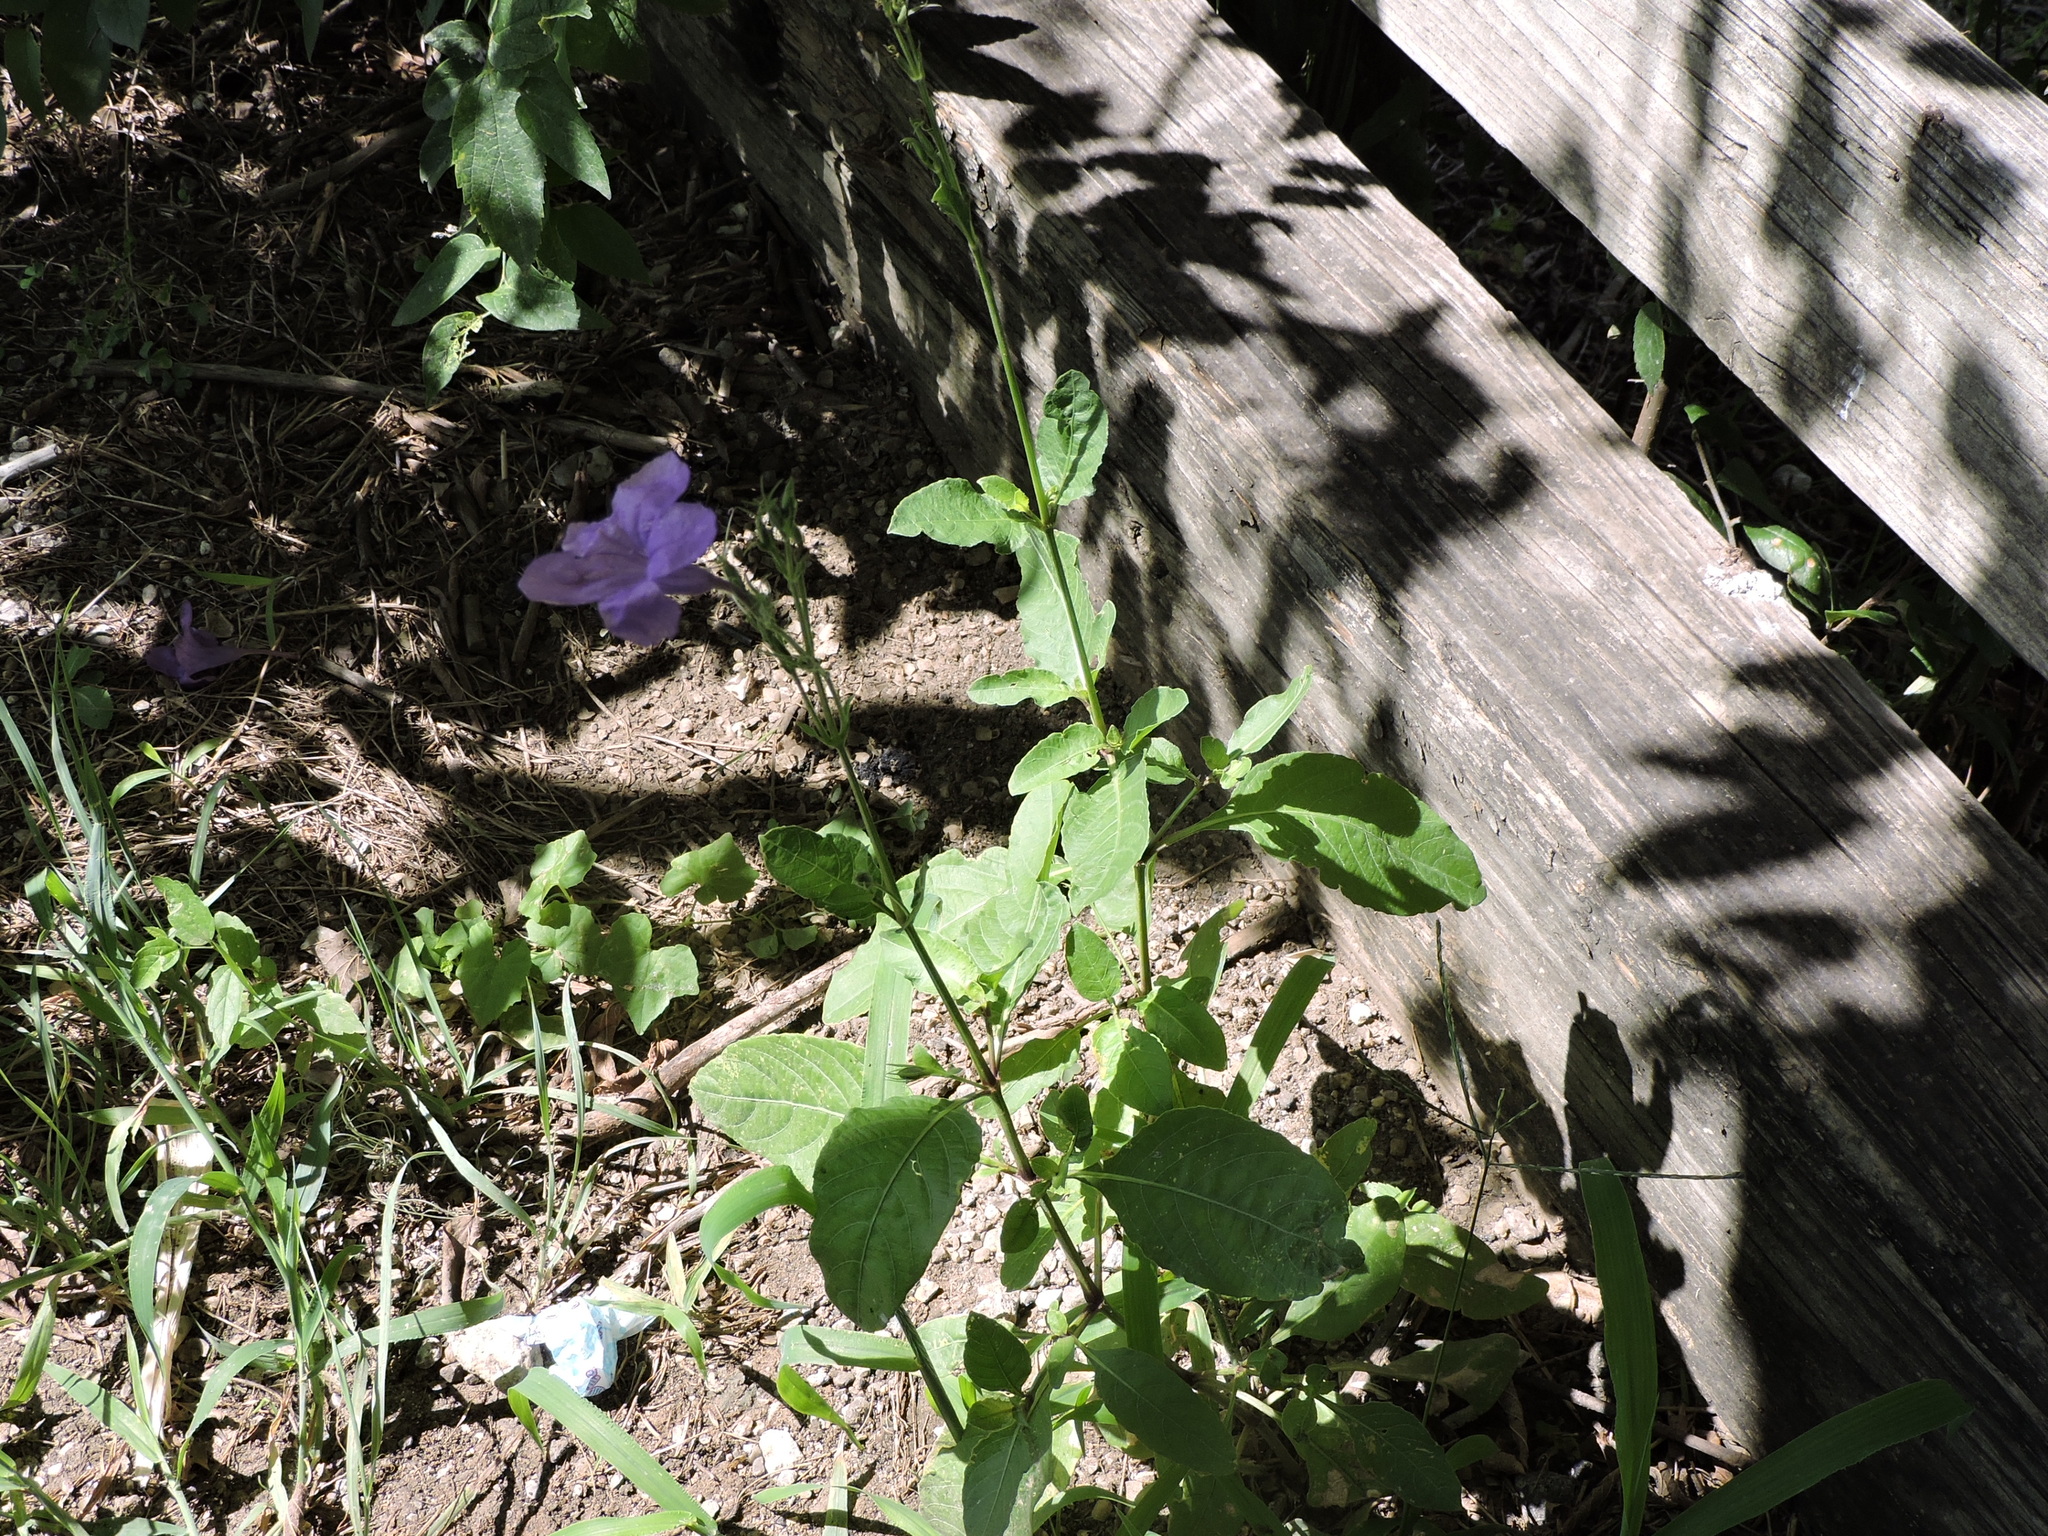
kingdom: Plantae
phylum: Tracheophyta
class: Magnoliopsida
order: Lamiales
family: Acanthaceae
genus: Ruellia
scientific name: Ruellia ciliatiflora
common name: Hairyflower wild petunia
